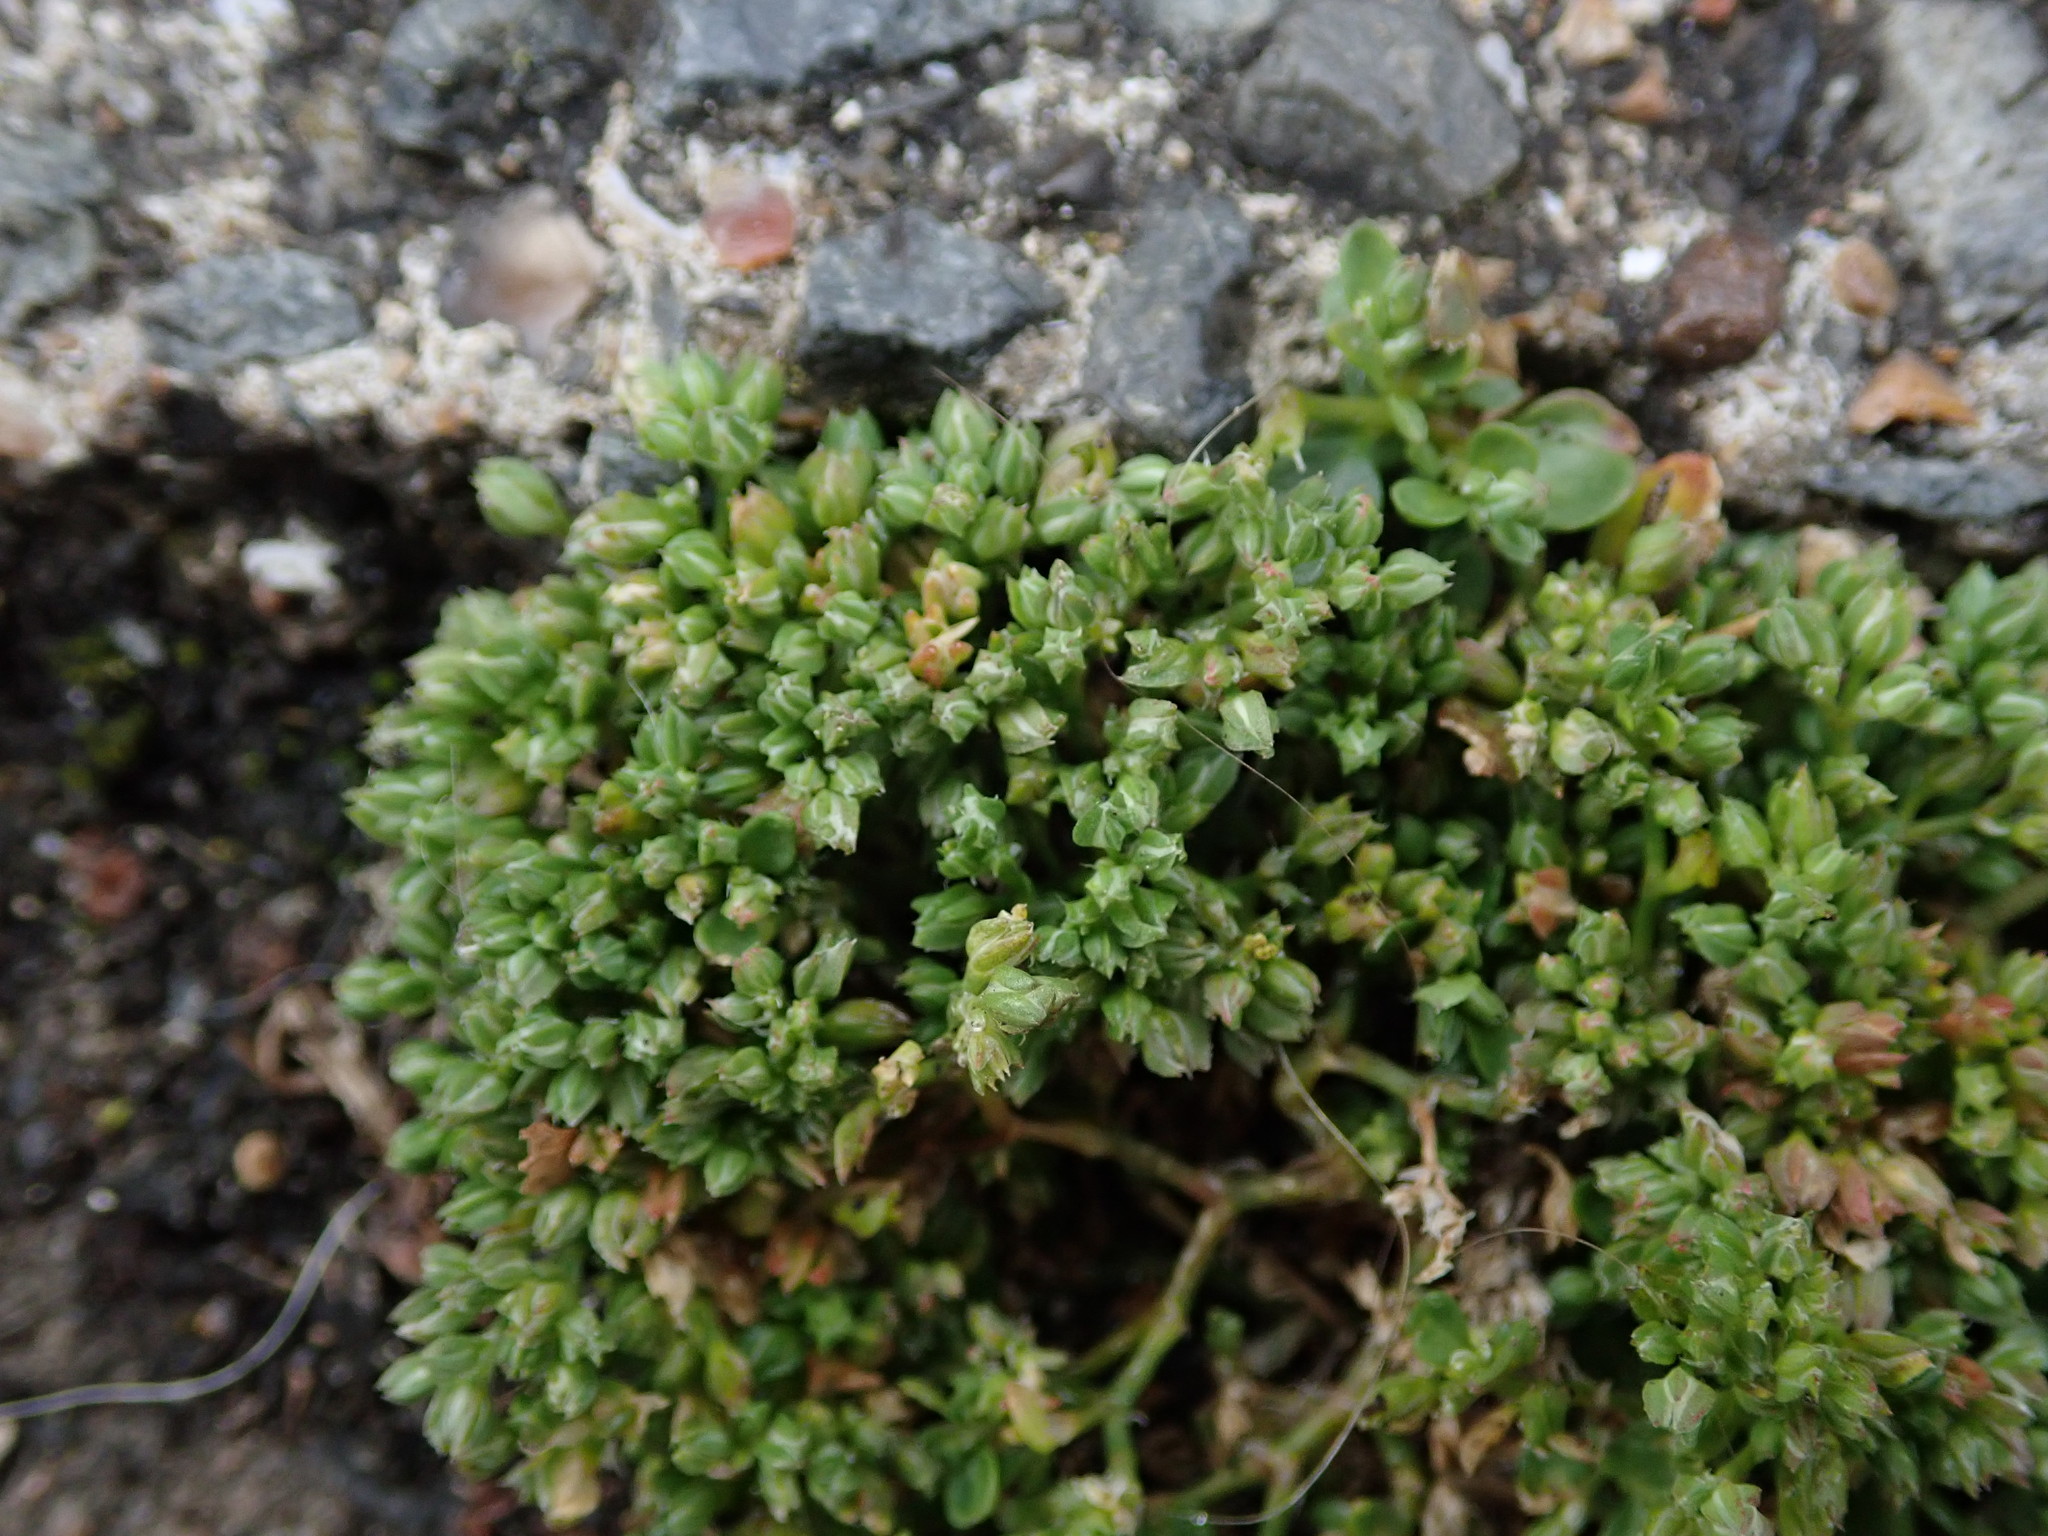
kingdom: Plantae
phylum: Tracheophyta
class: Magnoliopsida
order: Caryophyllales
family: Caryophyllaceae
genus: Polycarpon
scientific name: Polycarpon tetraphyllum
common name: Four-leaved all-seed
